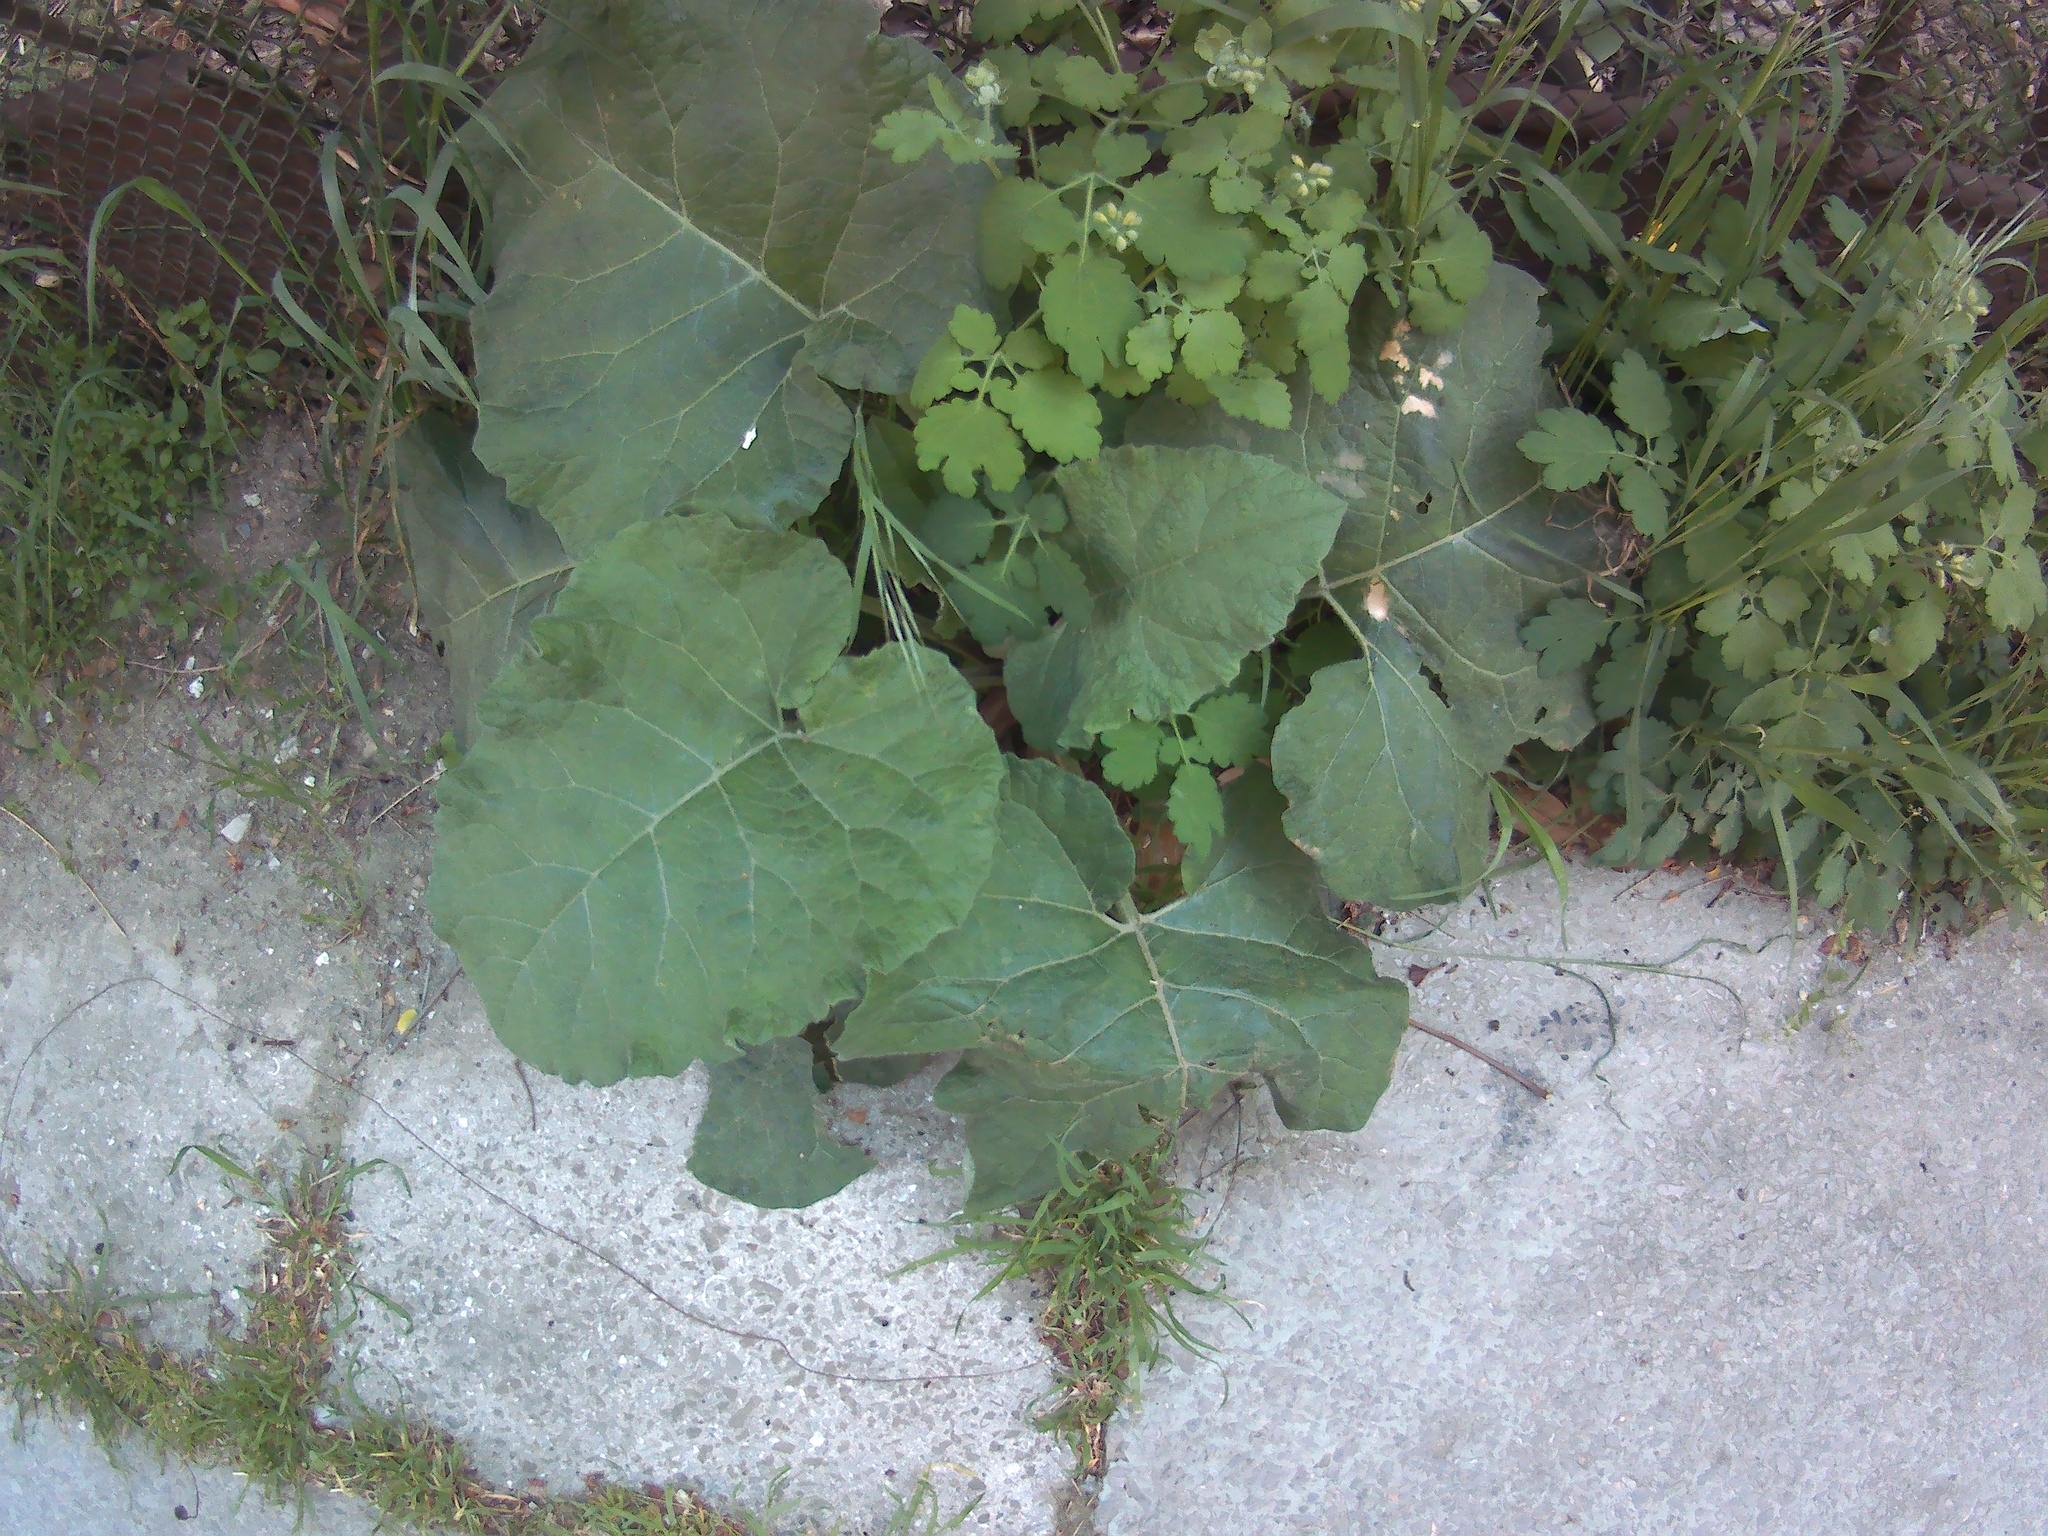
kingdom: Plantae
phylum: Tracheophyta
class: Magnoliopsida
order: Asterales
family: Asteraceae
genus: Arctium
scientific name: Arctium
